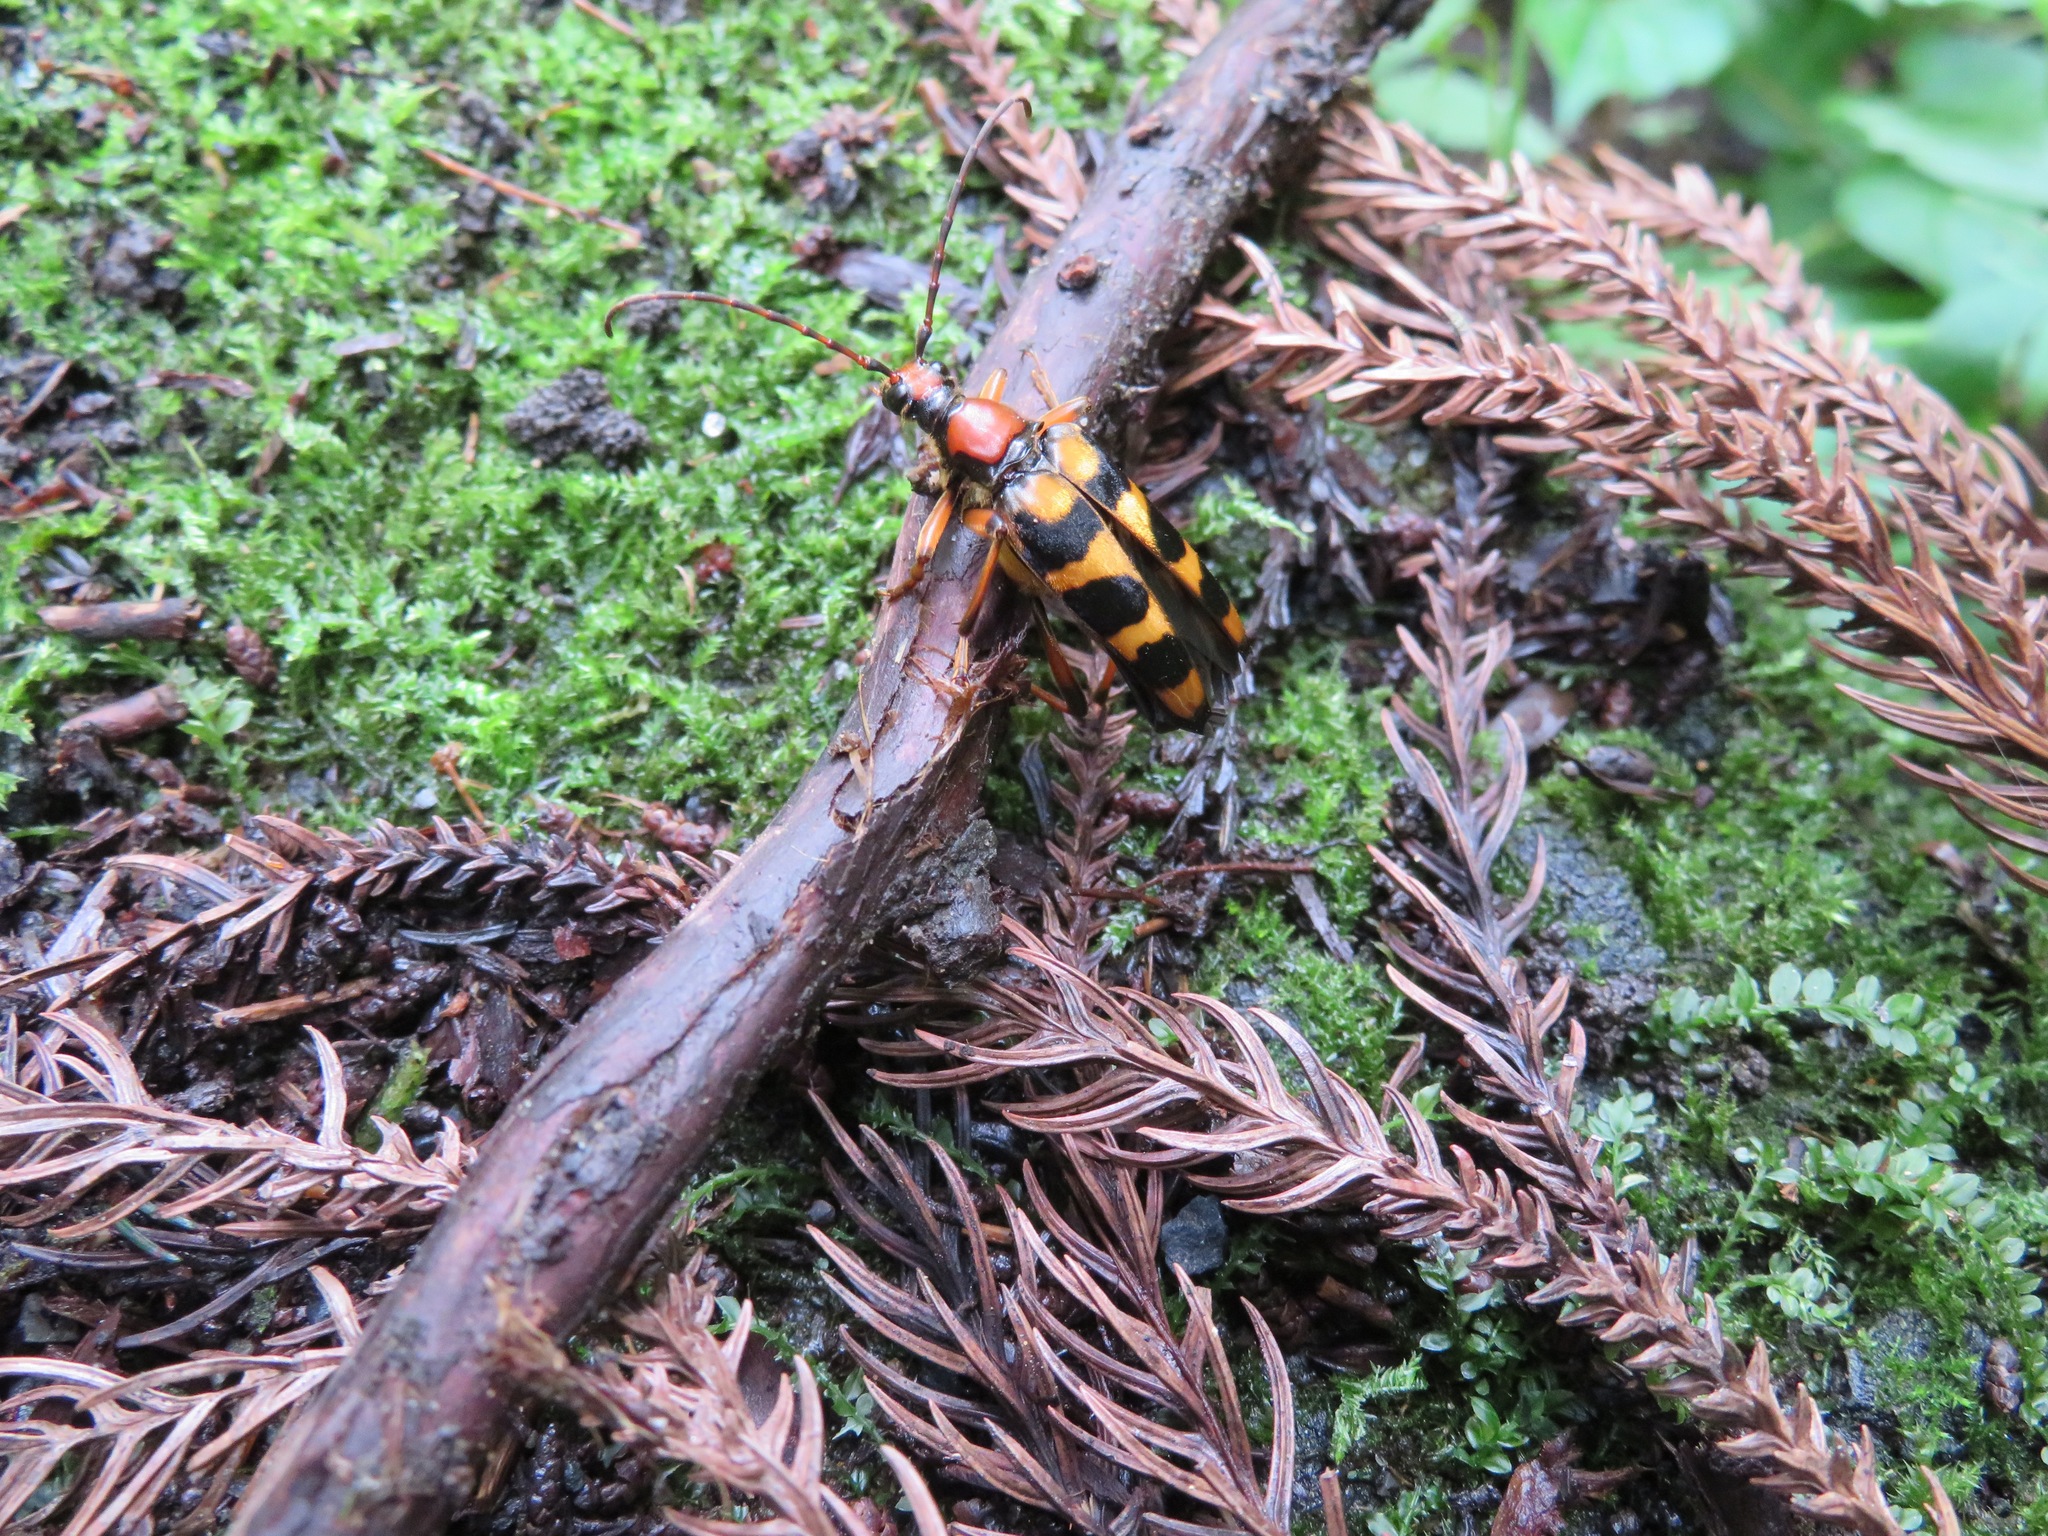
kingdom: Animalia
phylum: Arthropoda
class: Insecta
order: Coleoptera
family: Cerambycidae
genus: Leptura
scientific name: Leptura regalis
